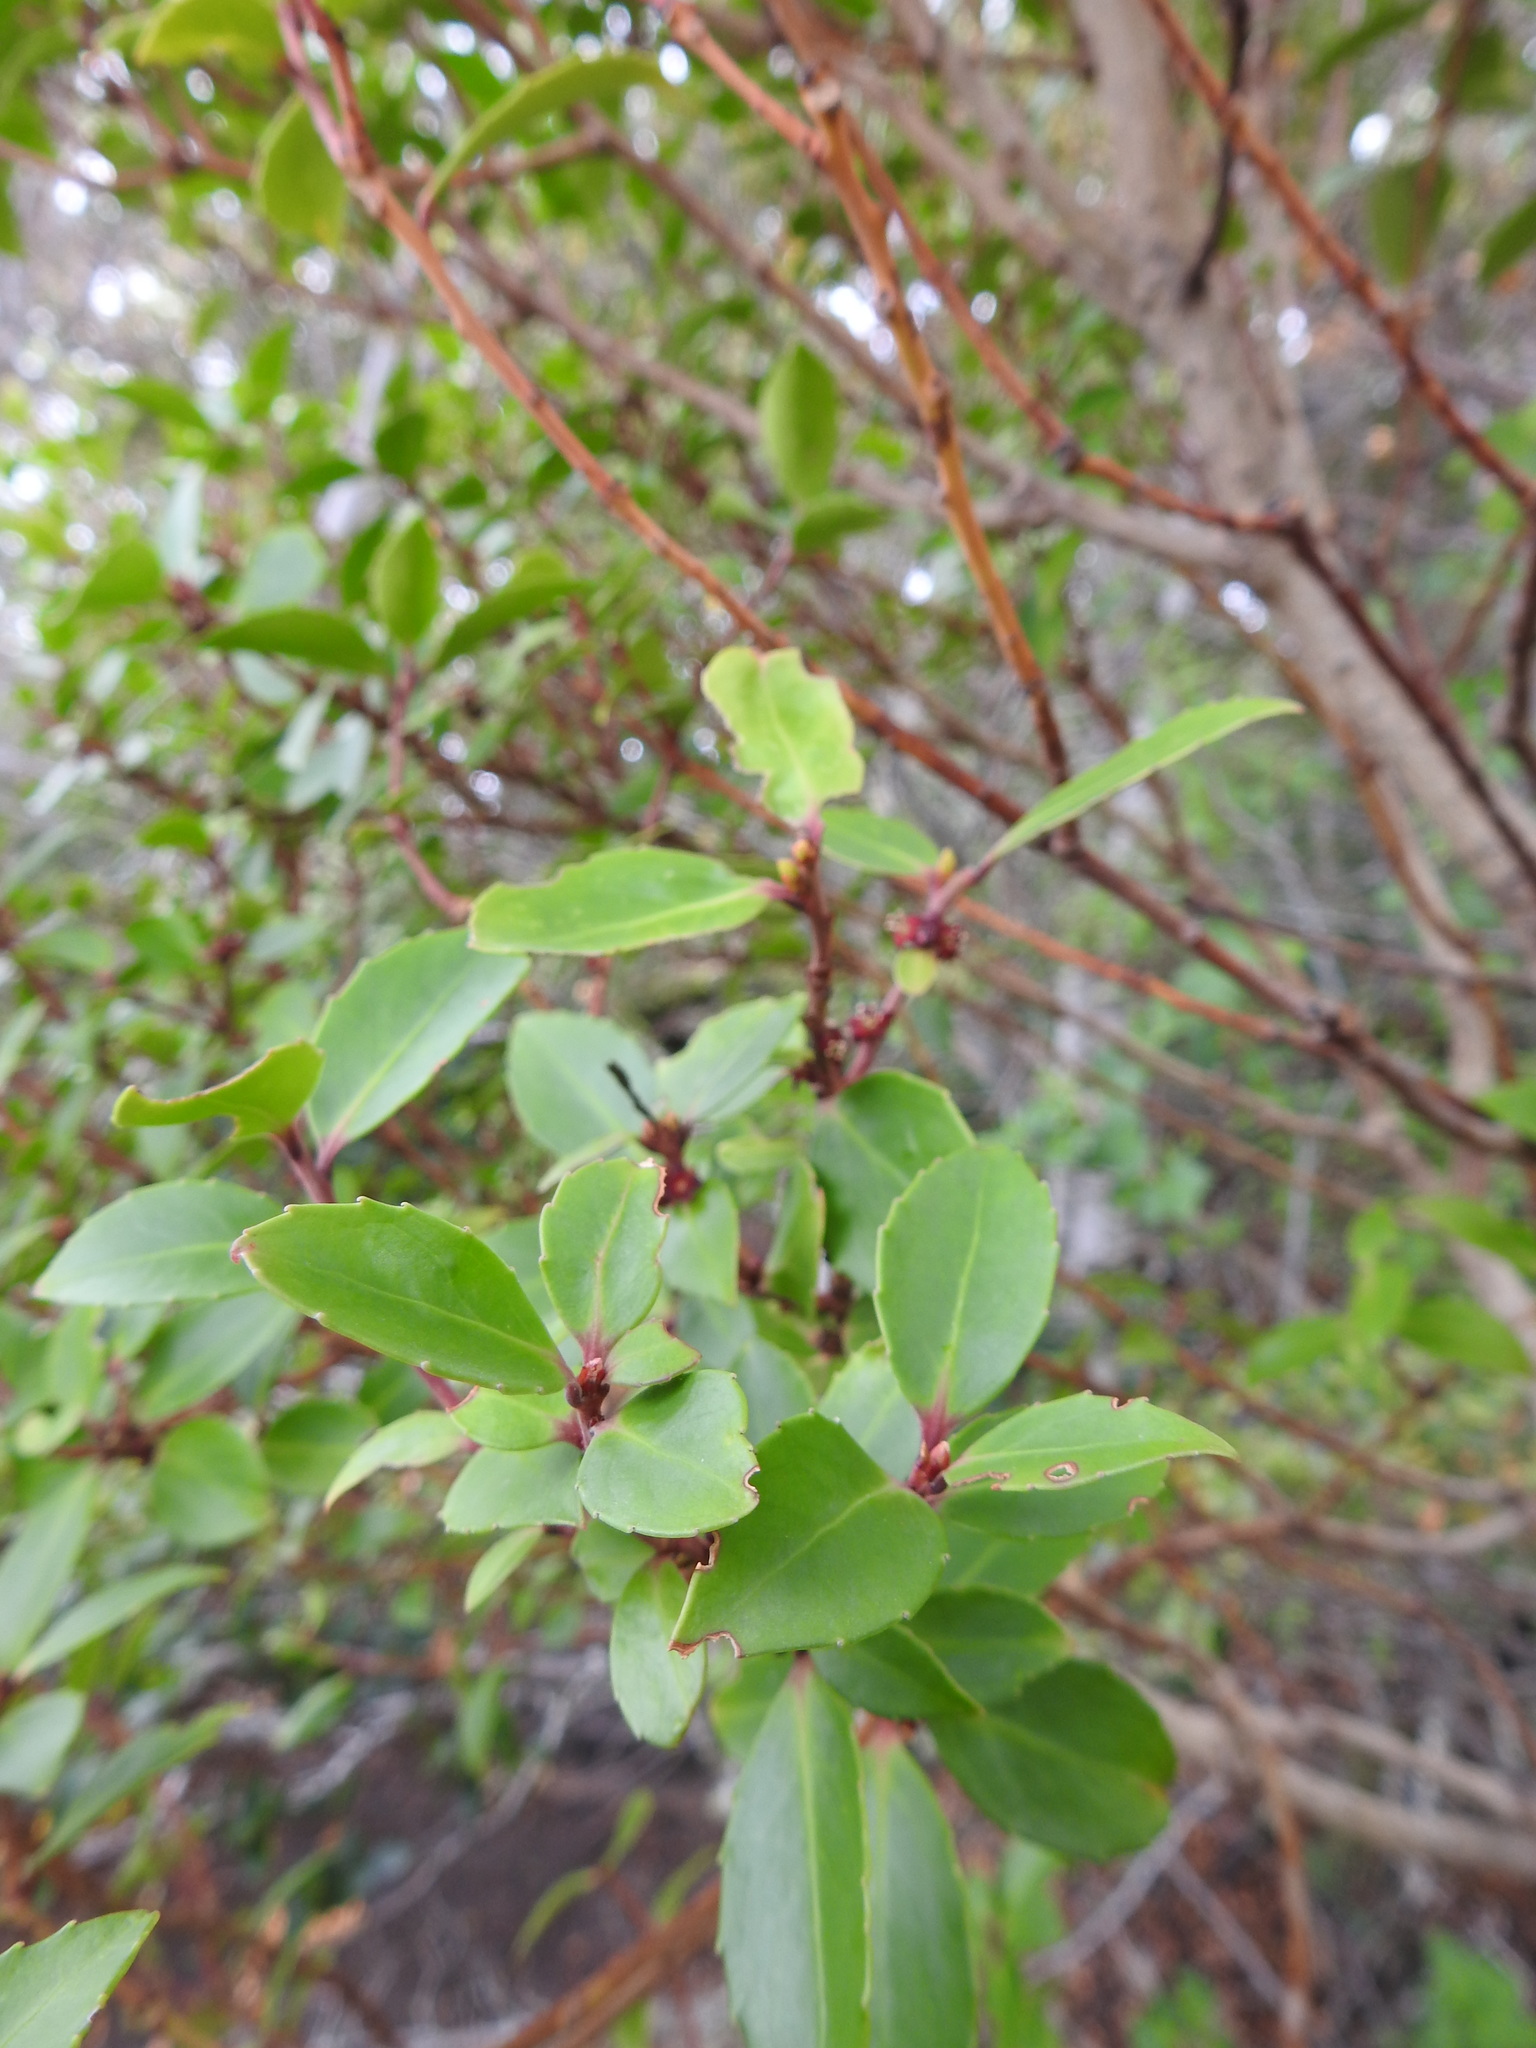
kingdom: Plantae
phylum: Tracheophyta
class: Magnoliopsida
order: Celastrales
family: Celastraceae
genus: Maytenus
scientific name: Maytenus magellanica
